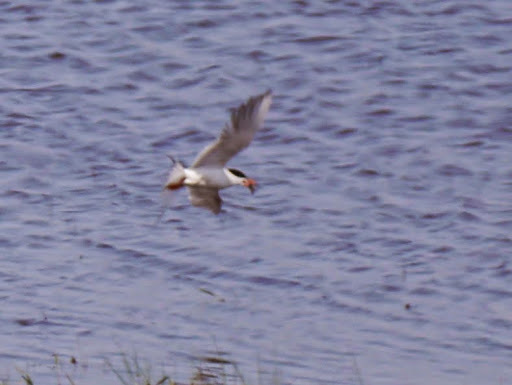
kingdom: Animalia
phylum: Chordata
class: Aves
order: Charadriiformes
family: Laridae
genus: Sterna
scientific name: Sterna forsteri
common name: Forster's tern
